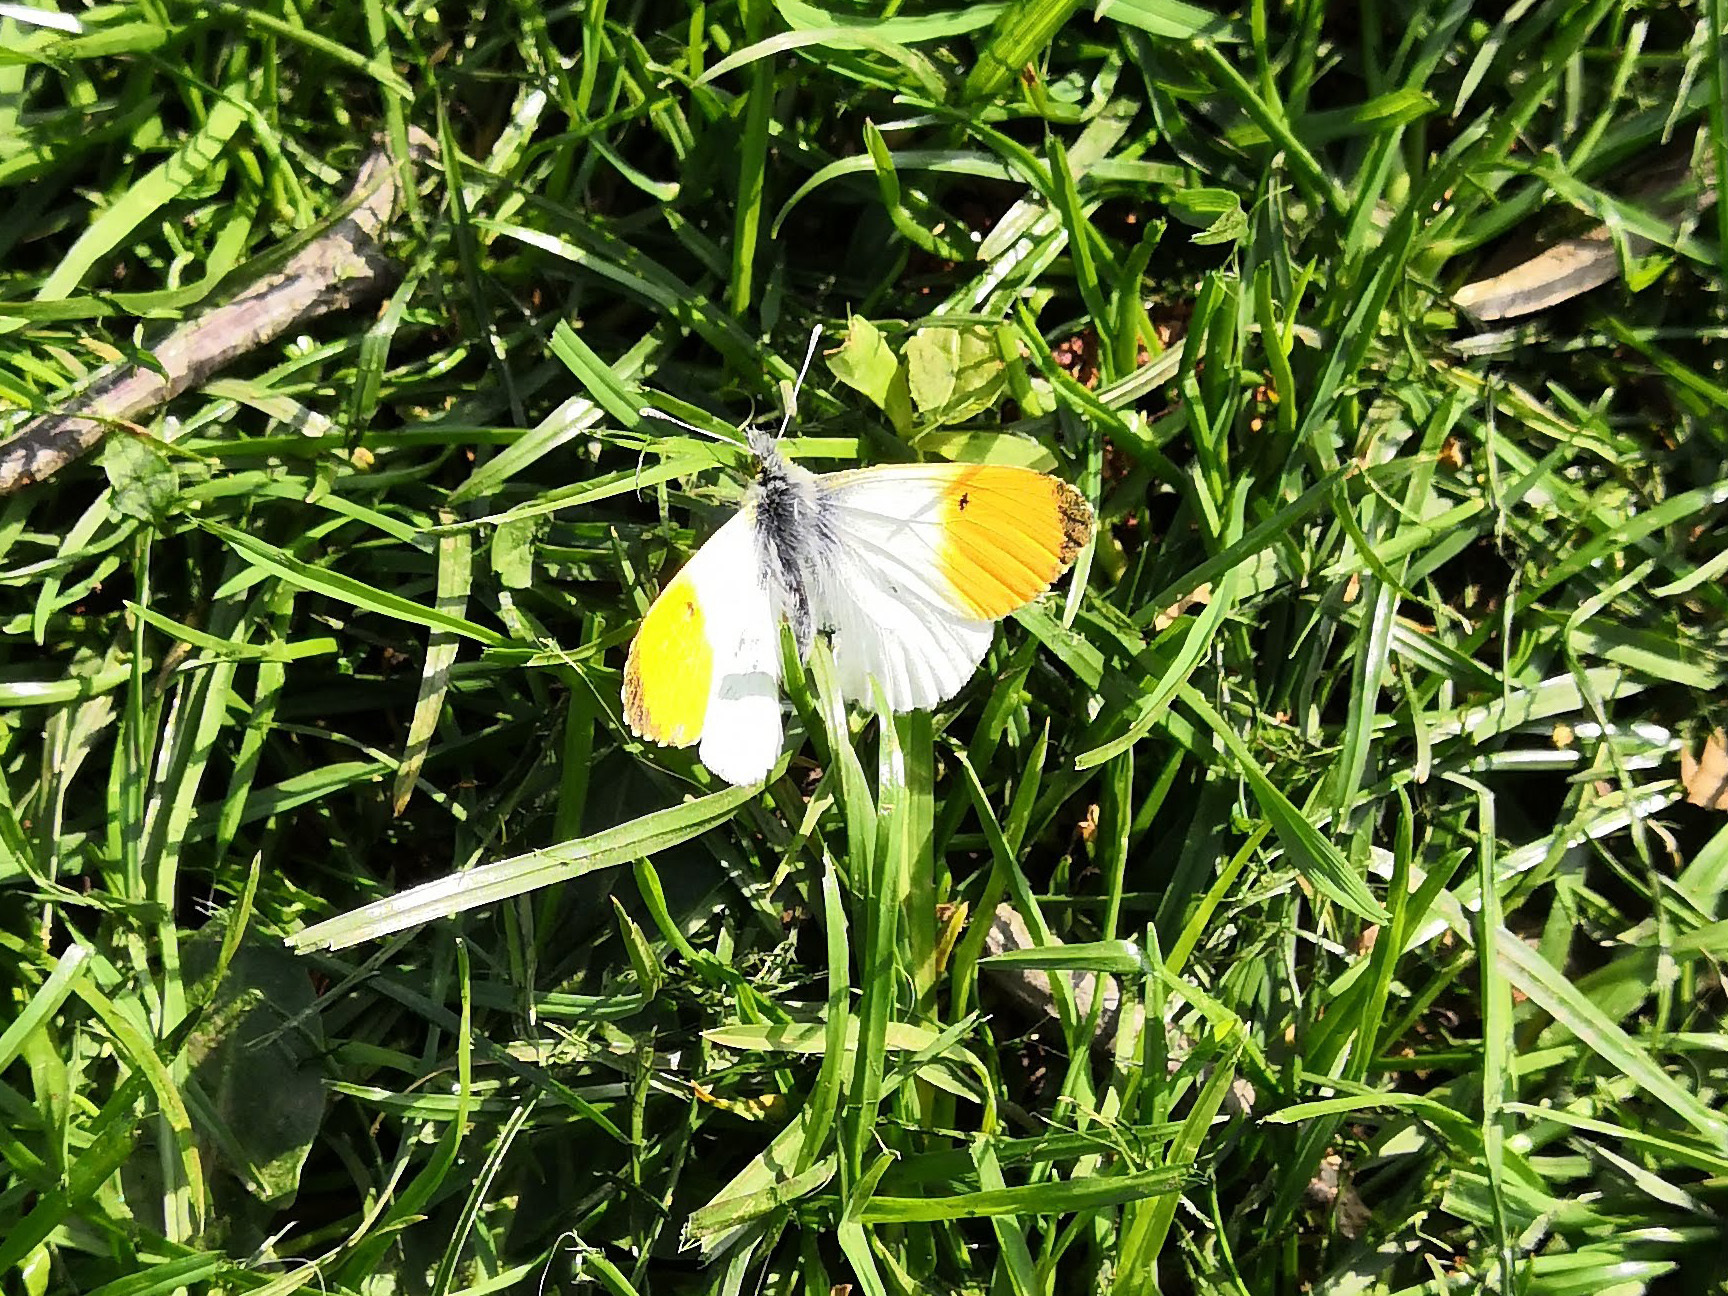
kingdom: Animalia
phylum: Arthropoda
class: Insecta
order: Lepidoptera
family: Pieridae
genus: Anthocharis
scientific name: Anthocharis cardamines
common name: Orange-tip
